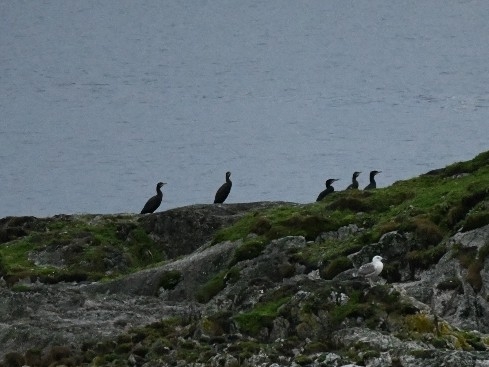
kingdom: Animalia
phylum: Chordata
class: Aves
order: Suliformes
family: Phalacrocoracidae
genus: Phalacrocorax
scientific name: Phalacrocorax carbo
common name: Great cormorant
